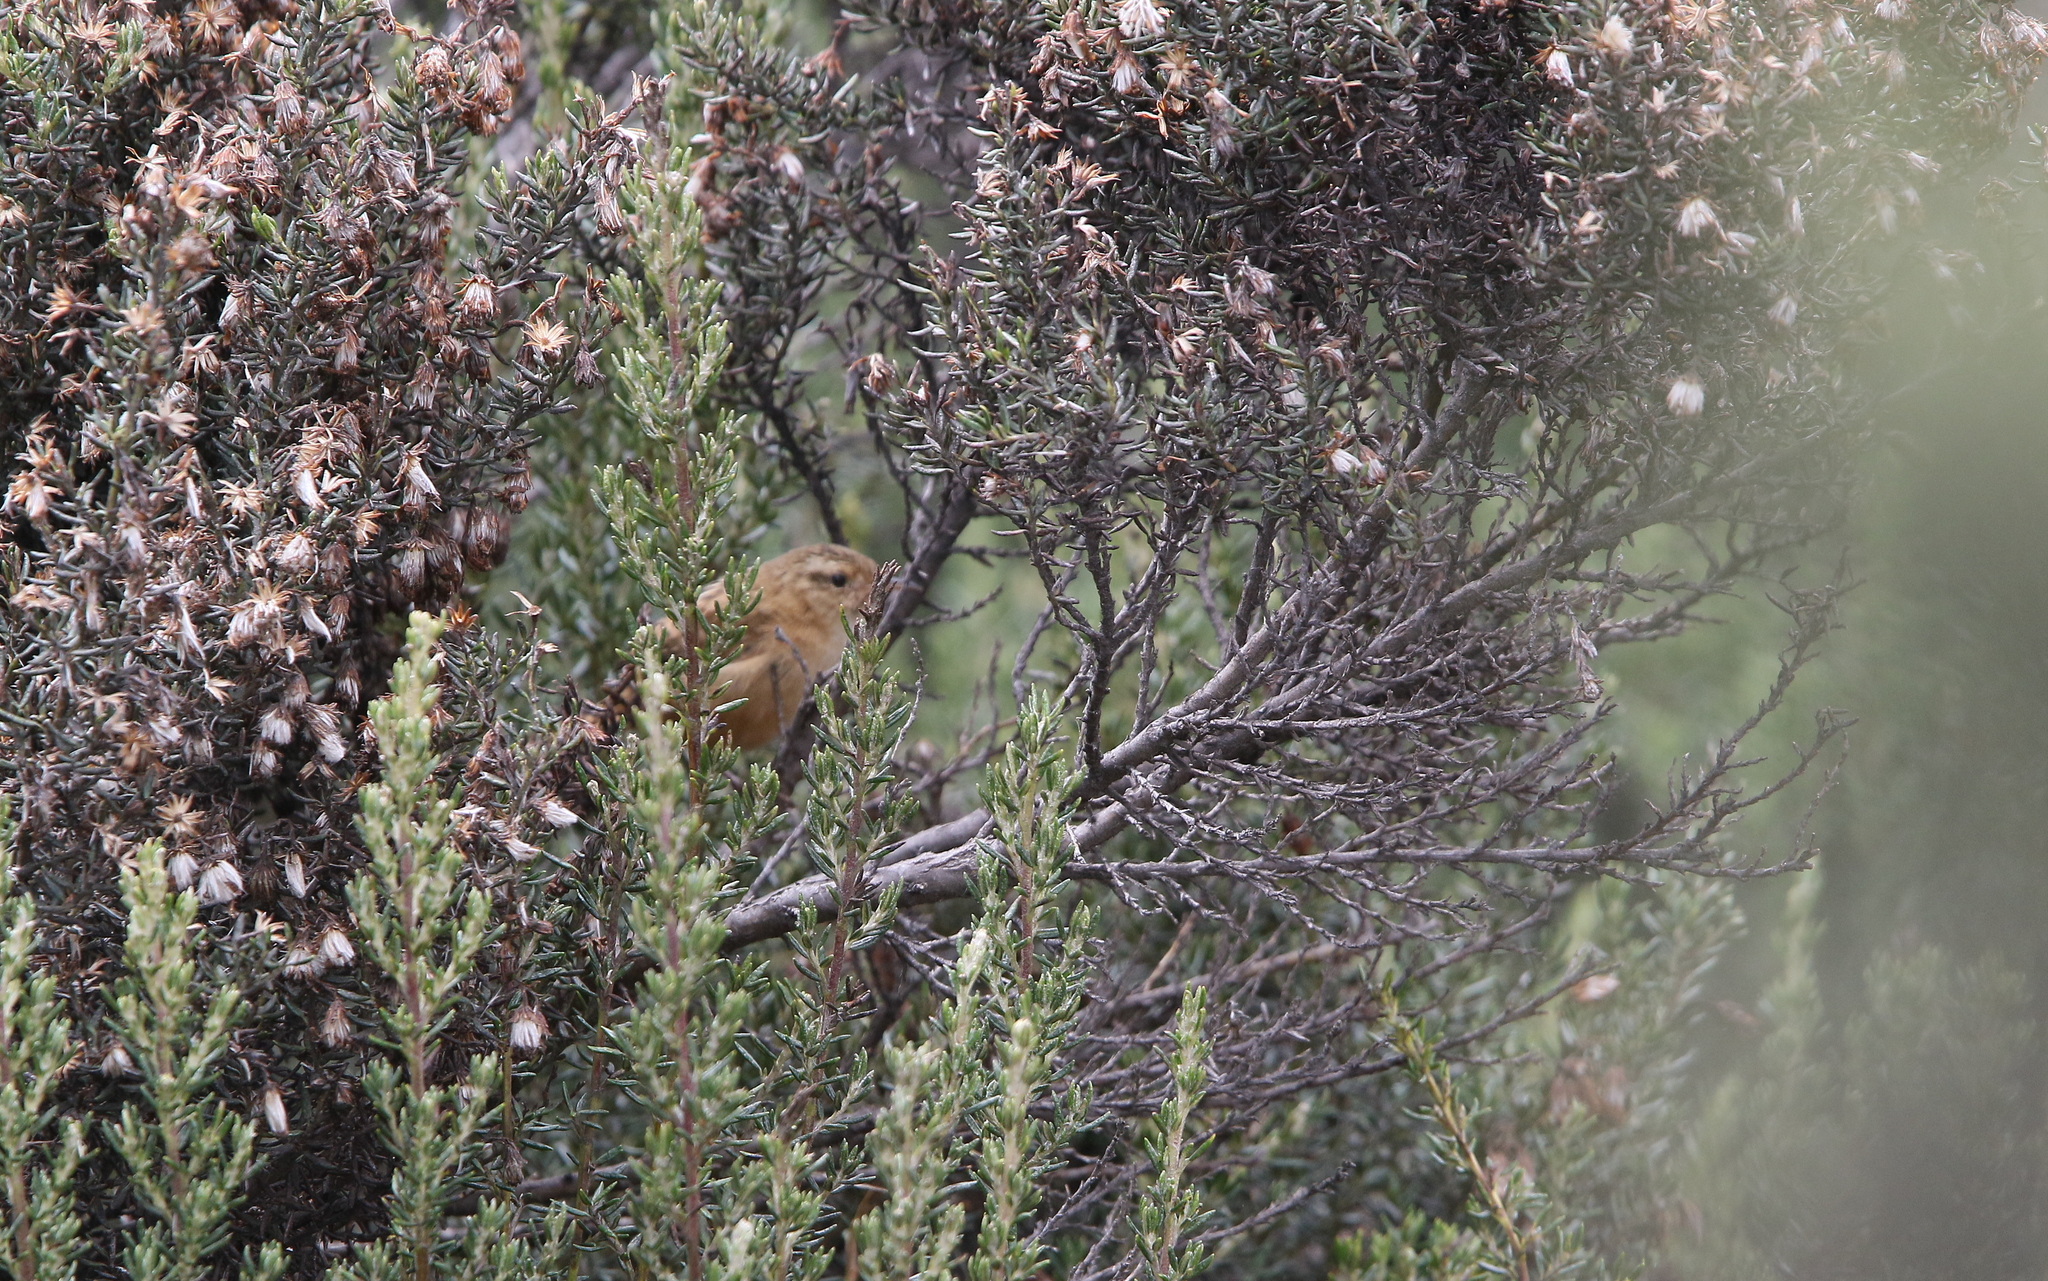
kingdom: Animalia
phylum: Chordata
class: Aves
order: Passeriformes
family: Troglodytidae
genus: Cistothorus
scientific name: Cistothorus platensis
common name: Sedge wren
